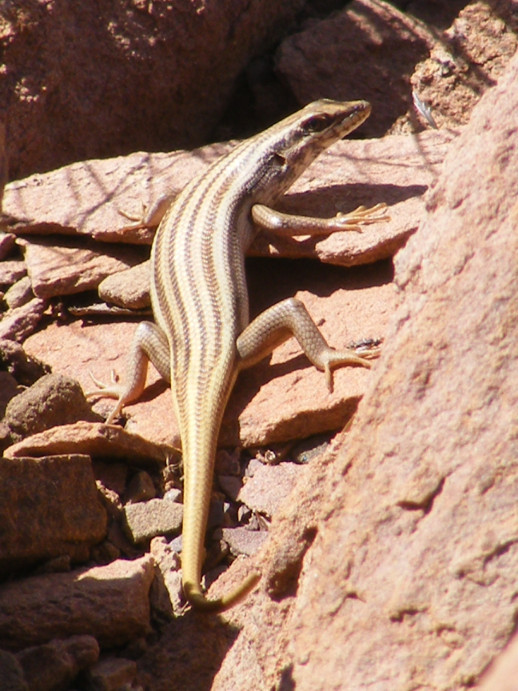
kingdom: Animalia
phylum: Chordata
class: Squamata
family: Scincidae
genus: Trachylepis
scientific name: Trachylepis sulcata
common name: Western rock skink
